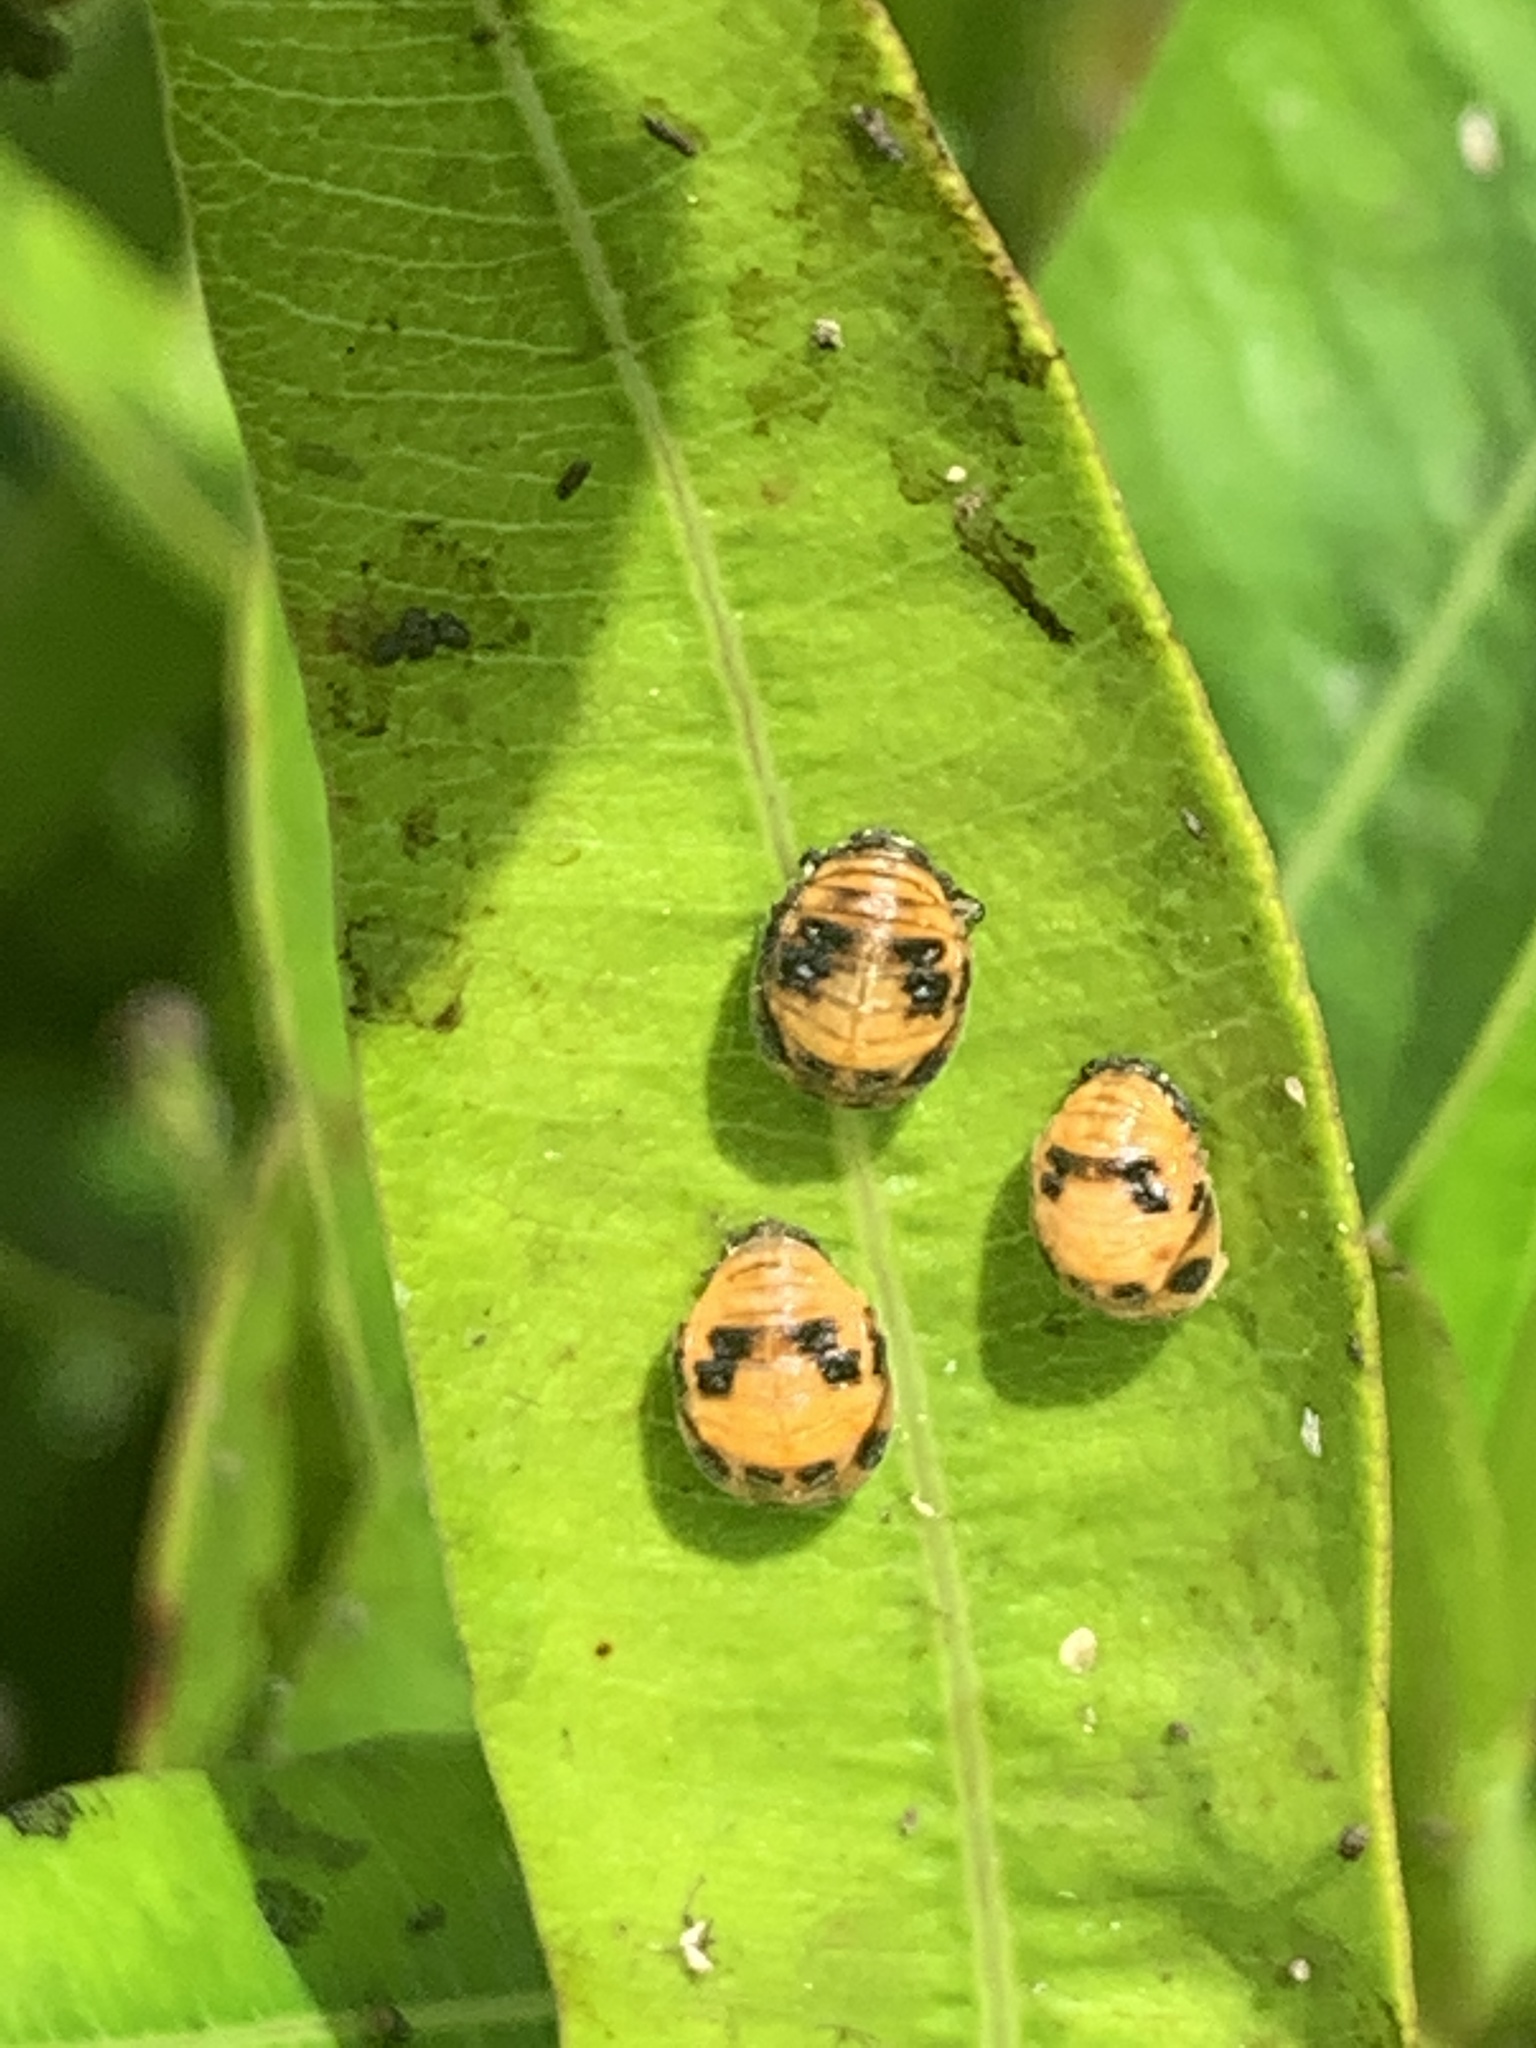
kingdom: Animalia
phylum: Arthropoda
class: Insecta
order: Coleoptera
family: Coccinellidae
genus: Coelophora
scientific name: Coelophora inaequalis
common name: Common australian lady beetle
